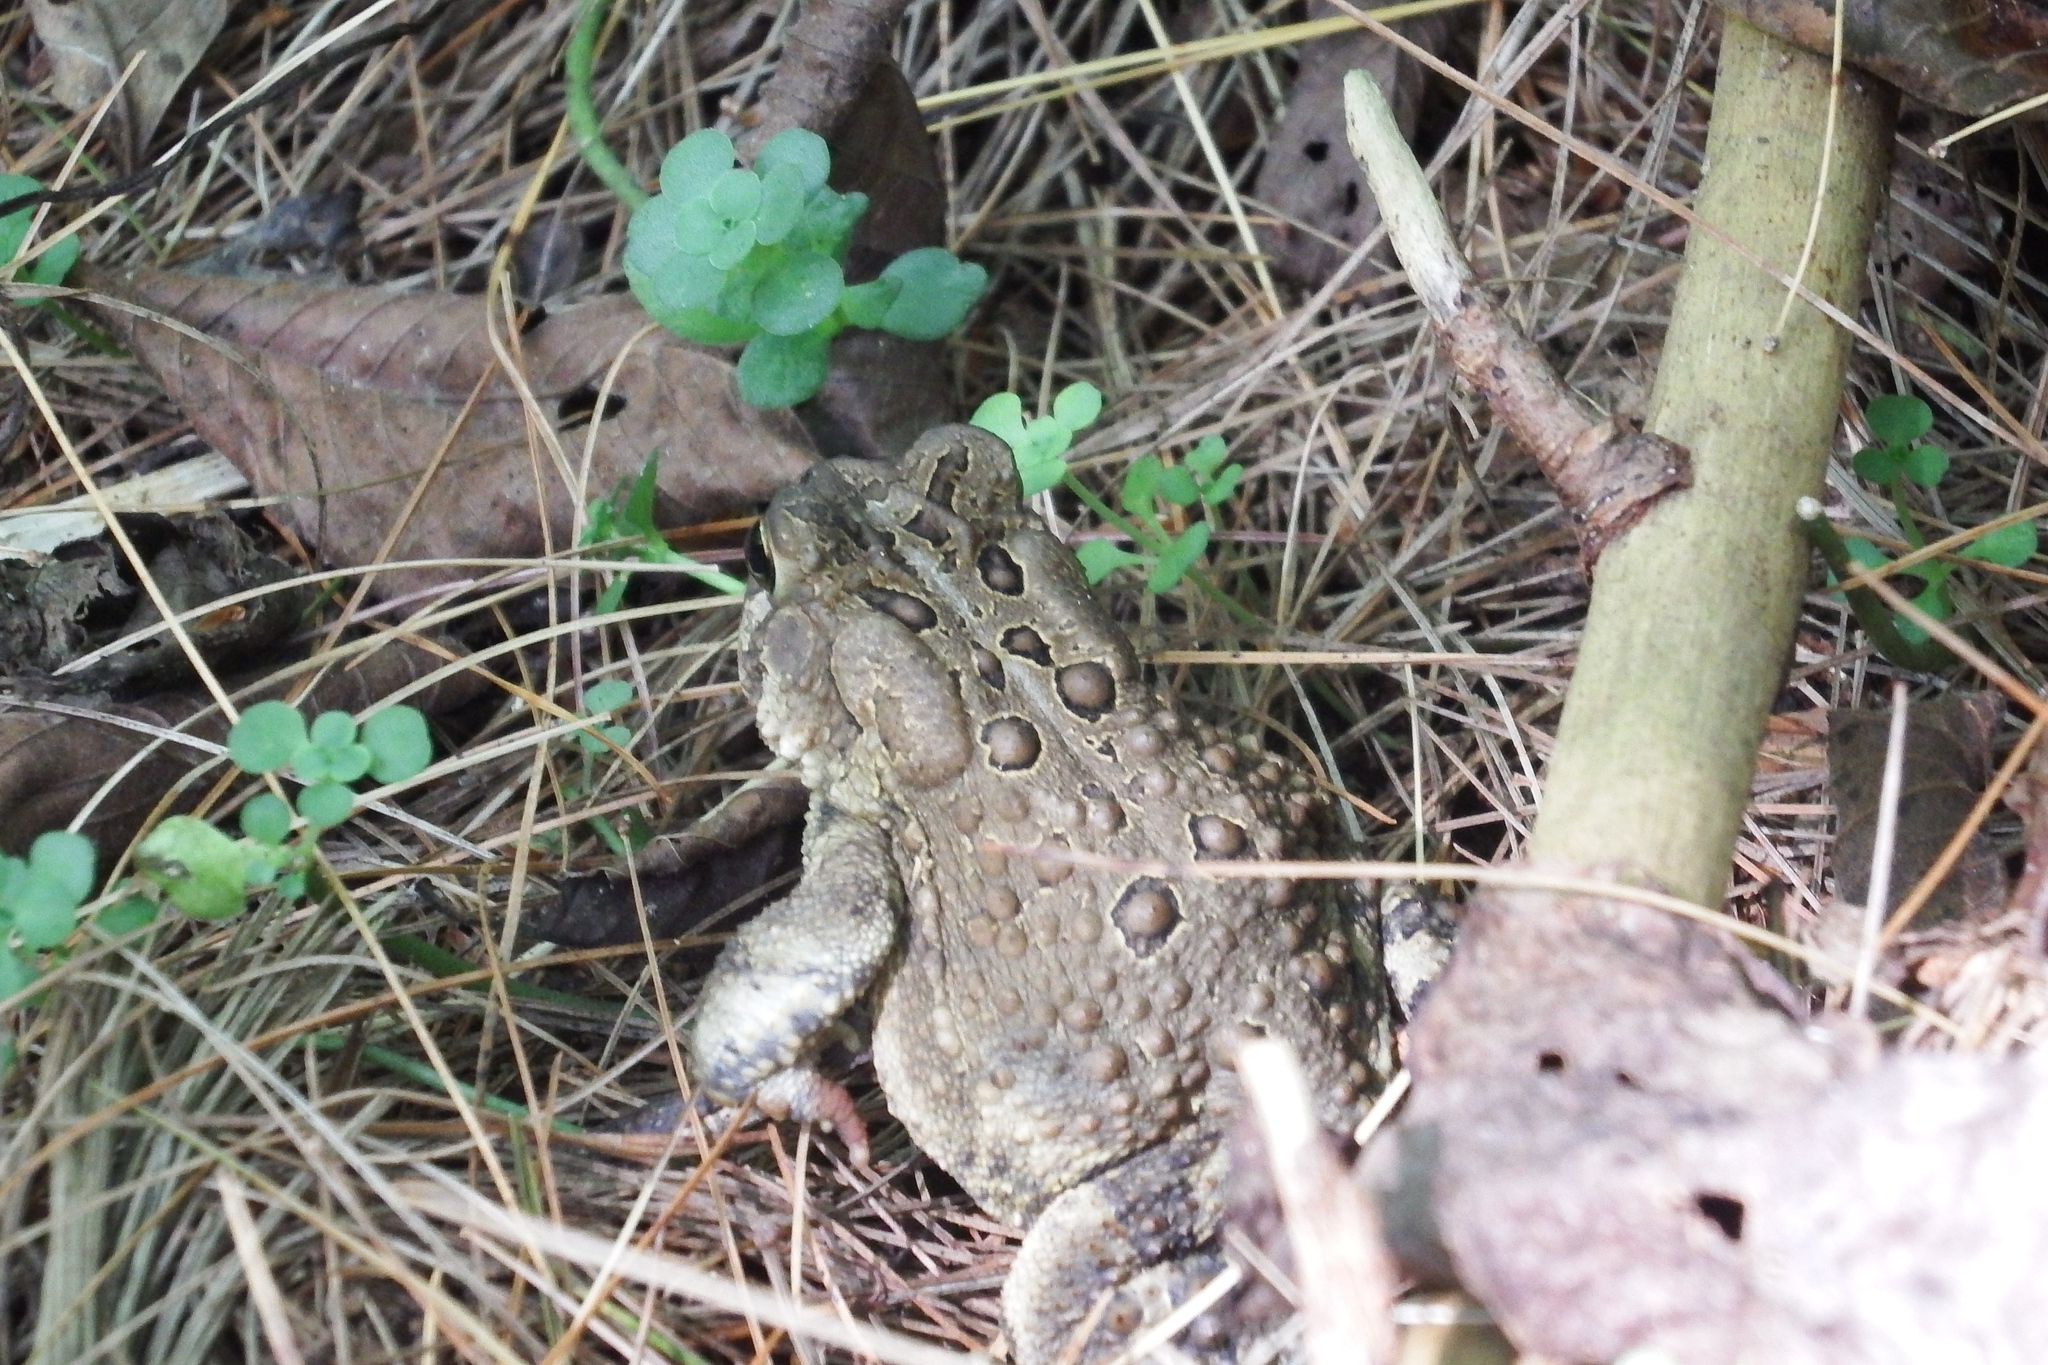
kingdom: Animalia
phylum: Chordata
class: Amphibia
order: Anura
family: Bufonidae
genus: Anaxyrus
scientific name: Anaxyrus americanus
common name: American toad
